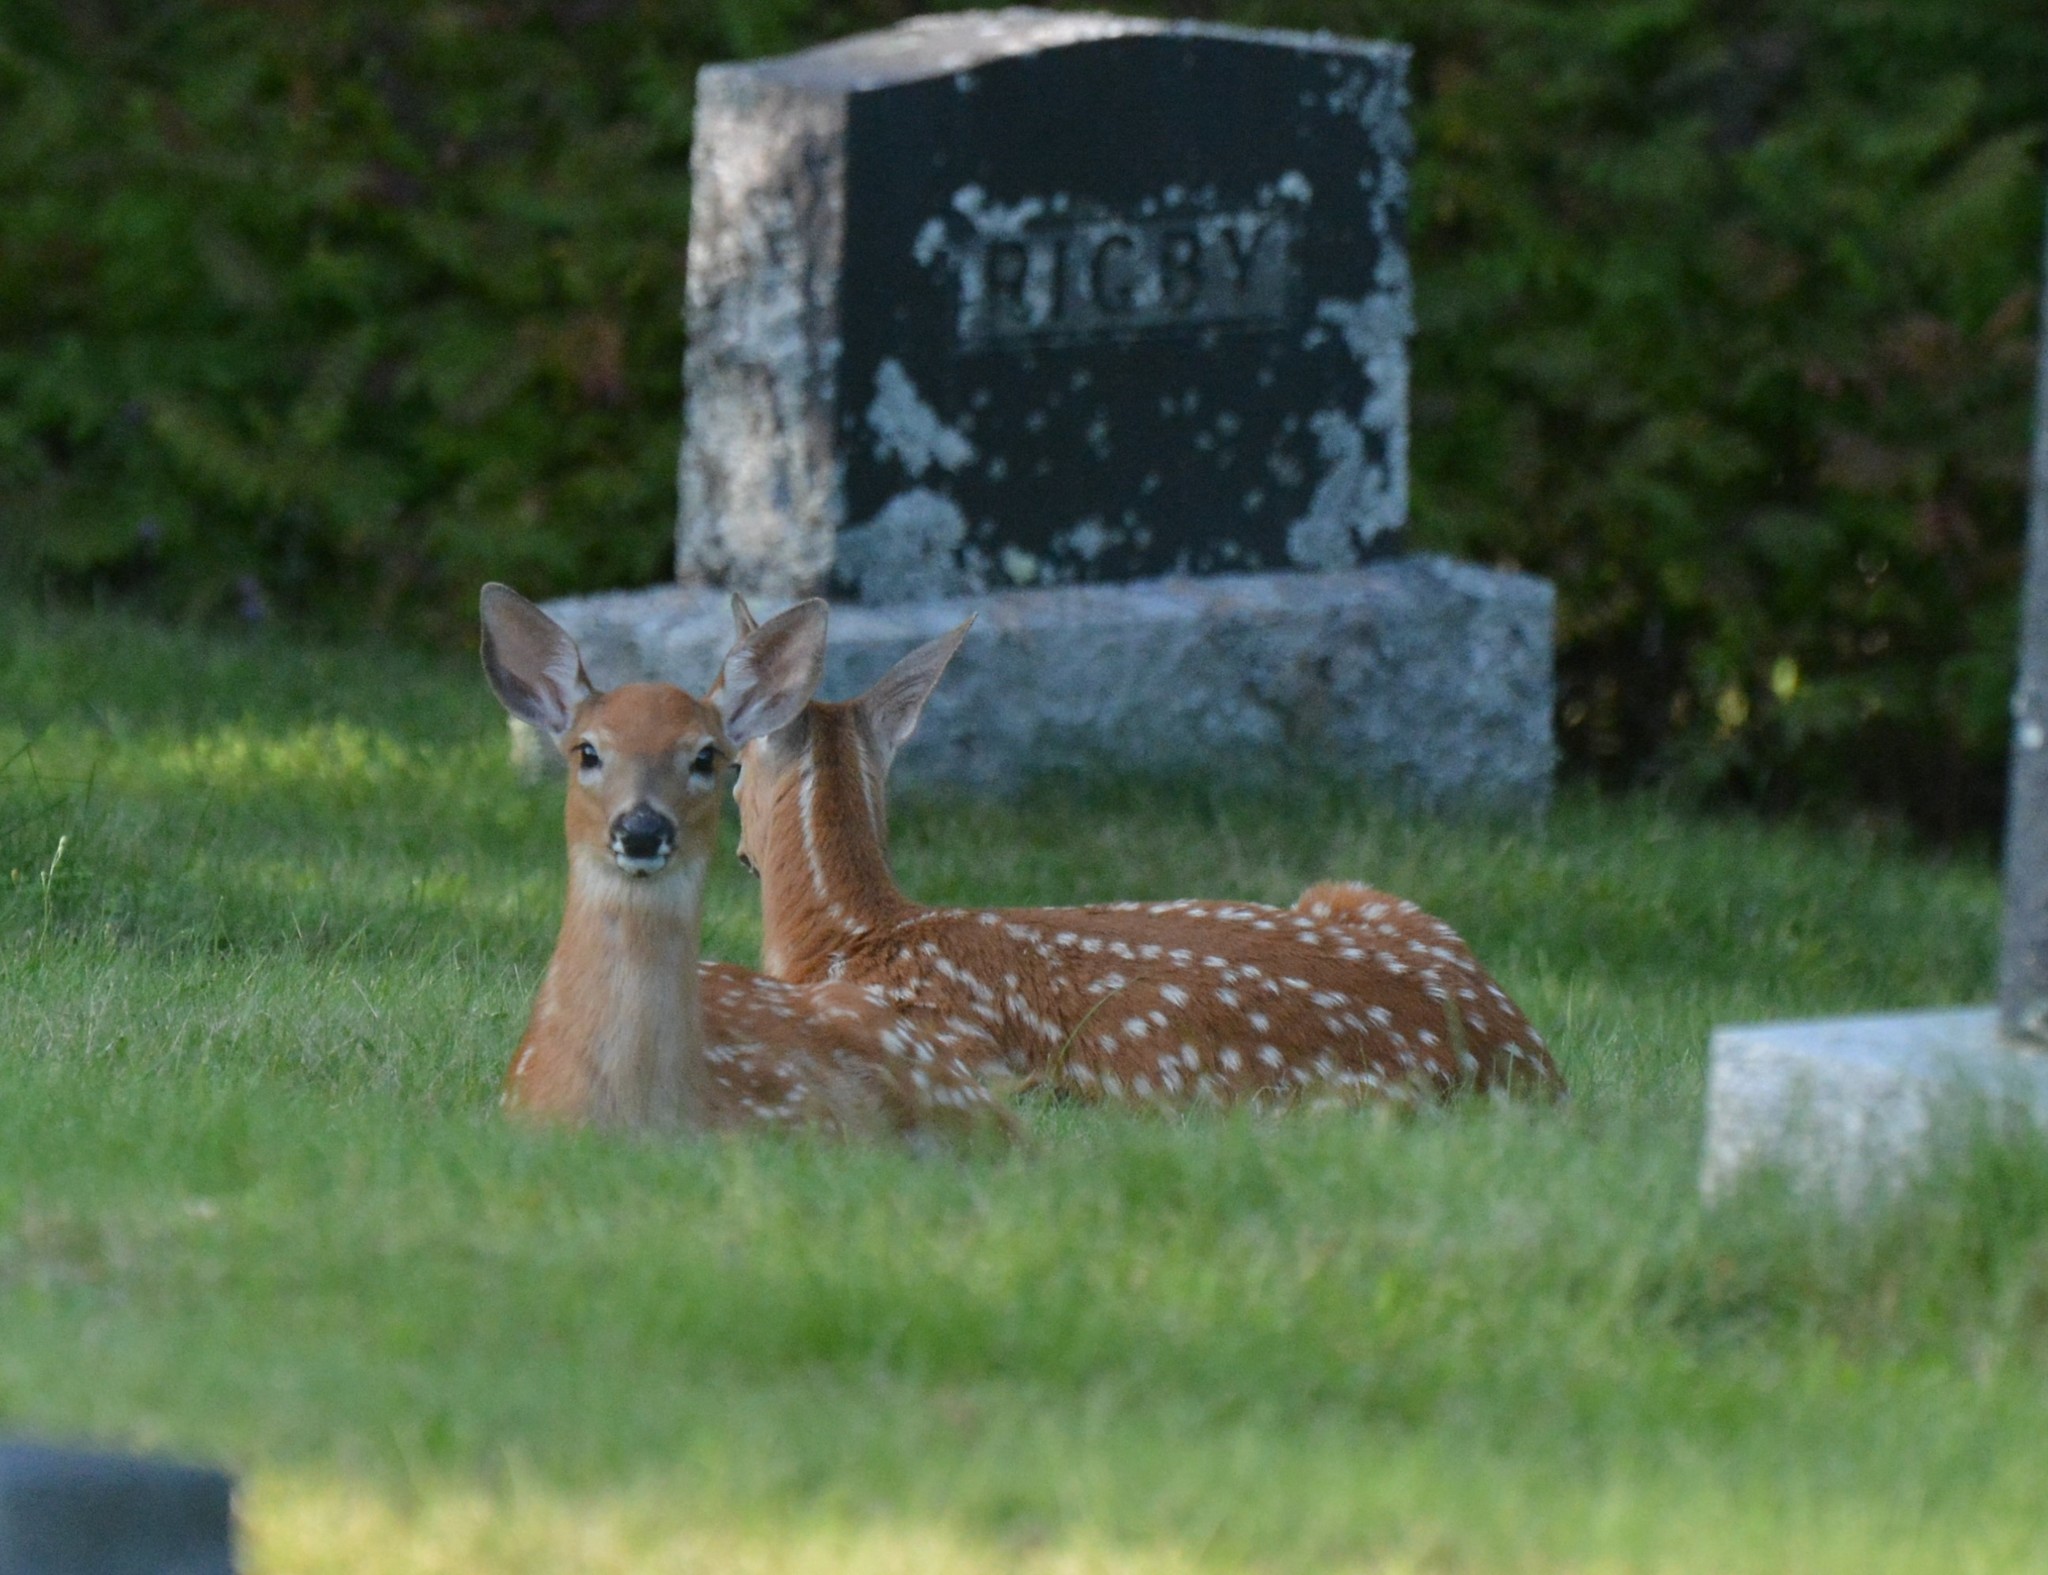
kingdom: Animalia
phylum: Chordata
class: Mammalia
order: Artiodactyla
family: Cervidae
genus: Odocoileus
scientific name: Odocoileus virginianus
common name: White-tailed deer
